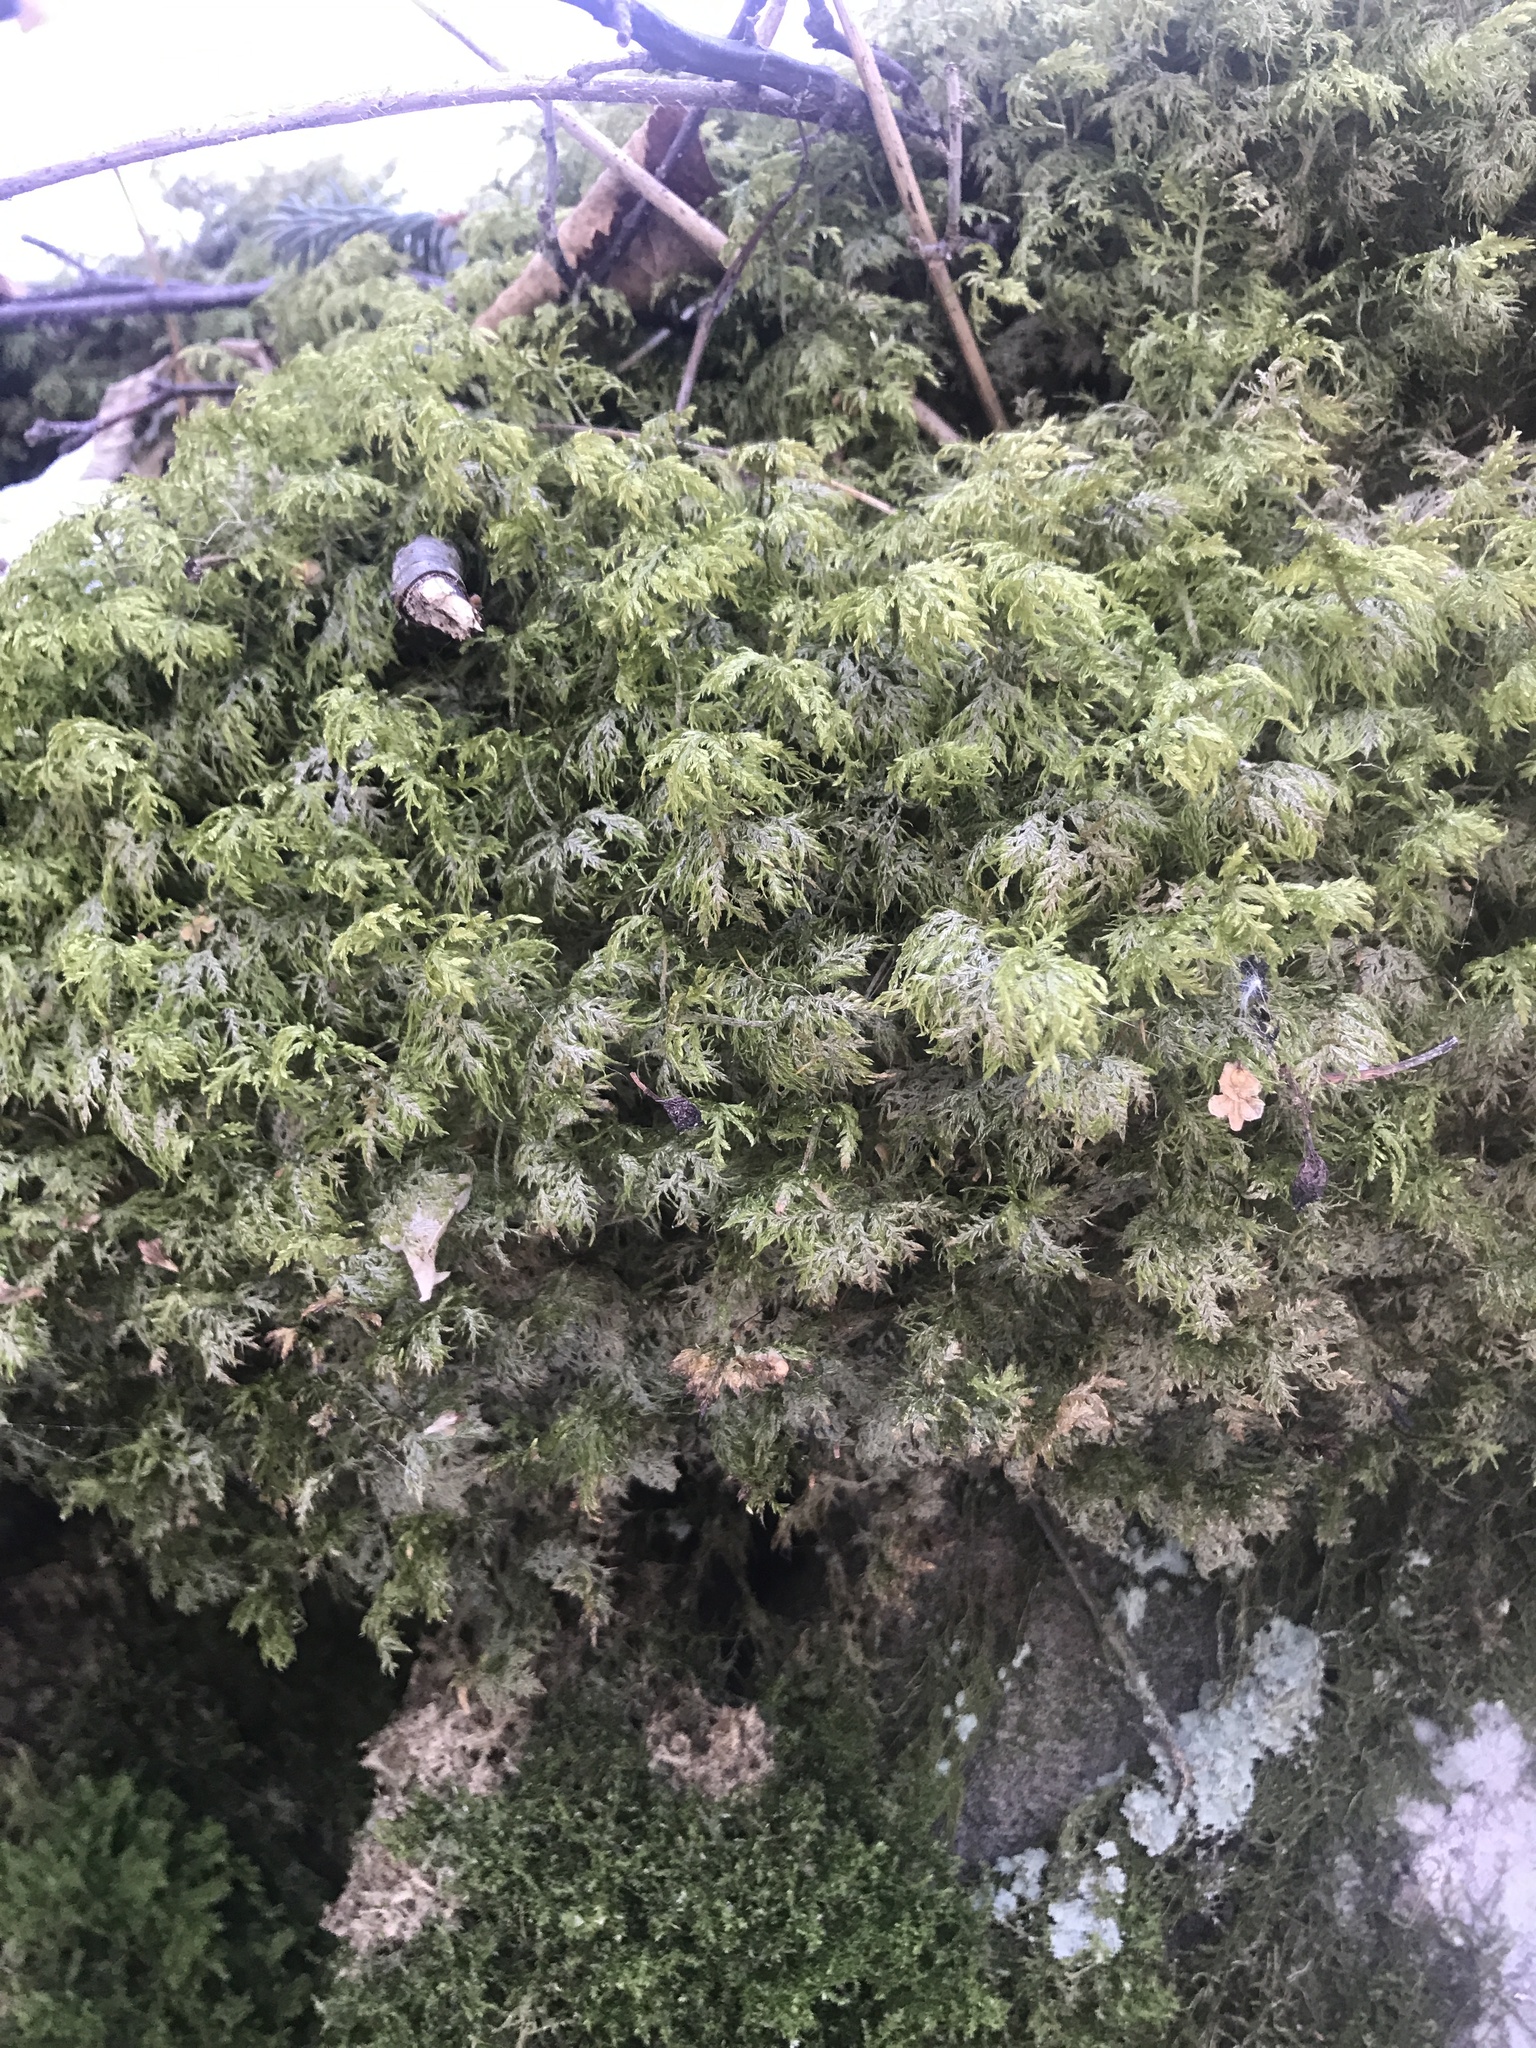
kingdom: Plantae
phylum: Bryophyta
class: Bryopsida
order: Hypnales
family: Hylocomiaceae
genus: Hylocomium
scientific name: Hylocomium splendens
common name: Stairstep moss
